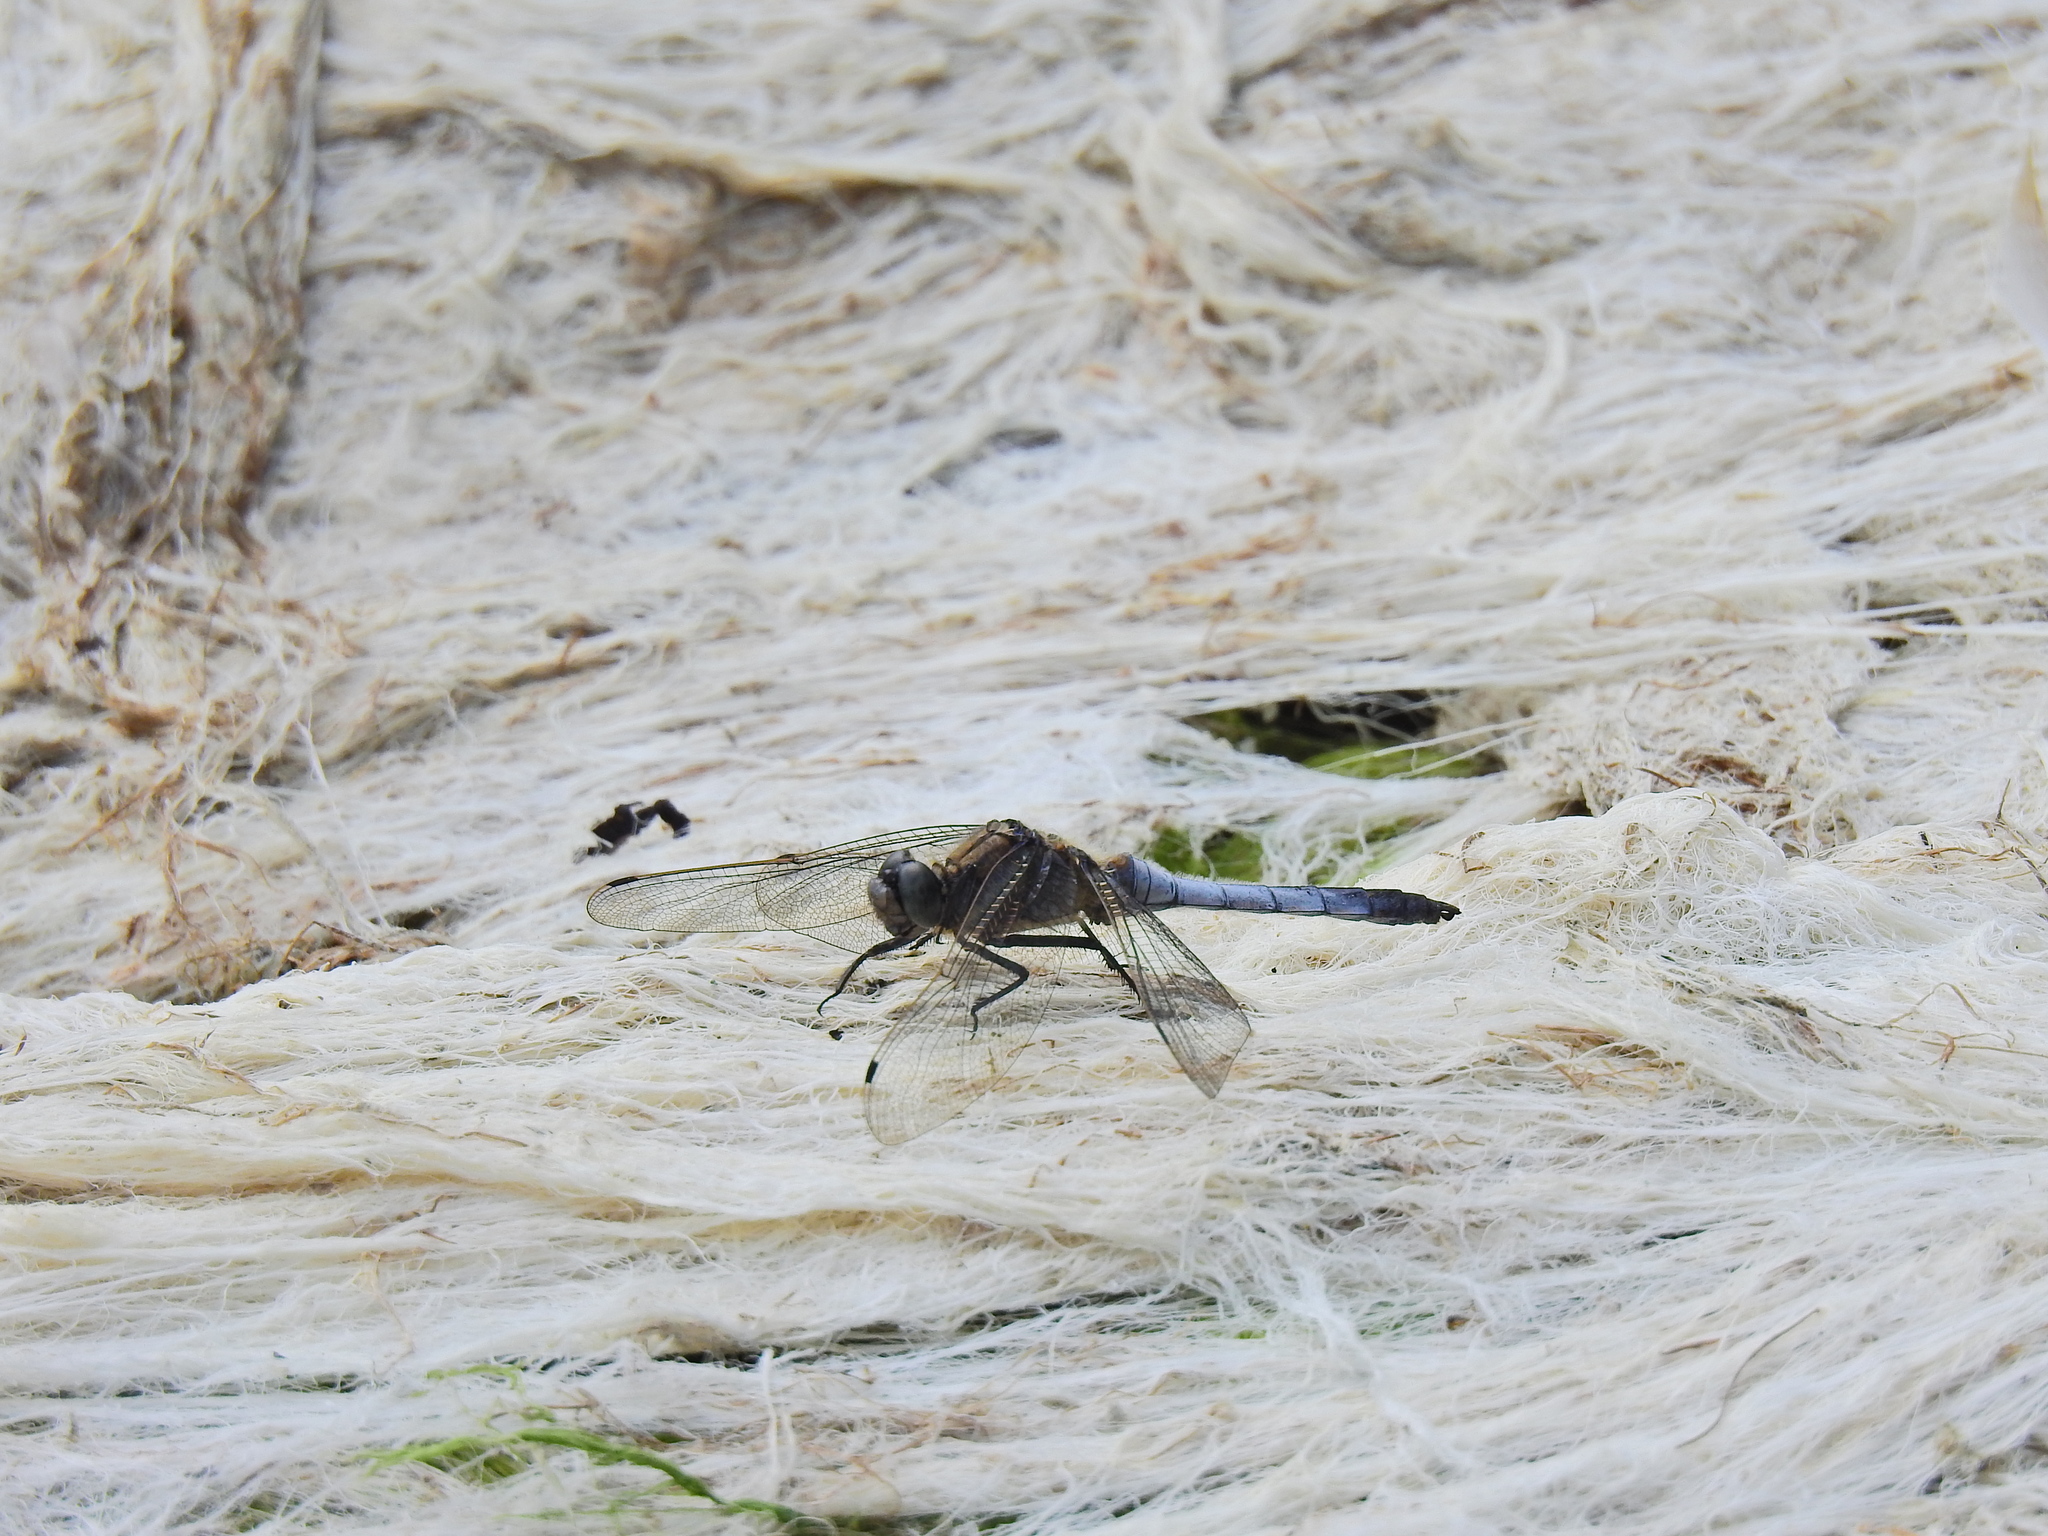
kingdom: Animalia
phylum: Arthropoda
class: Insecta
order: Odonata
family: Libellulidae
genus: Orthetrum
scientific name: Orthetrum cancellatum
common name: Black-tailed skimmer
